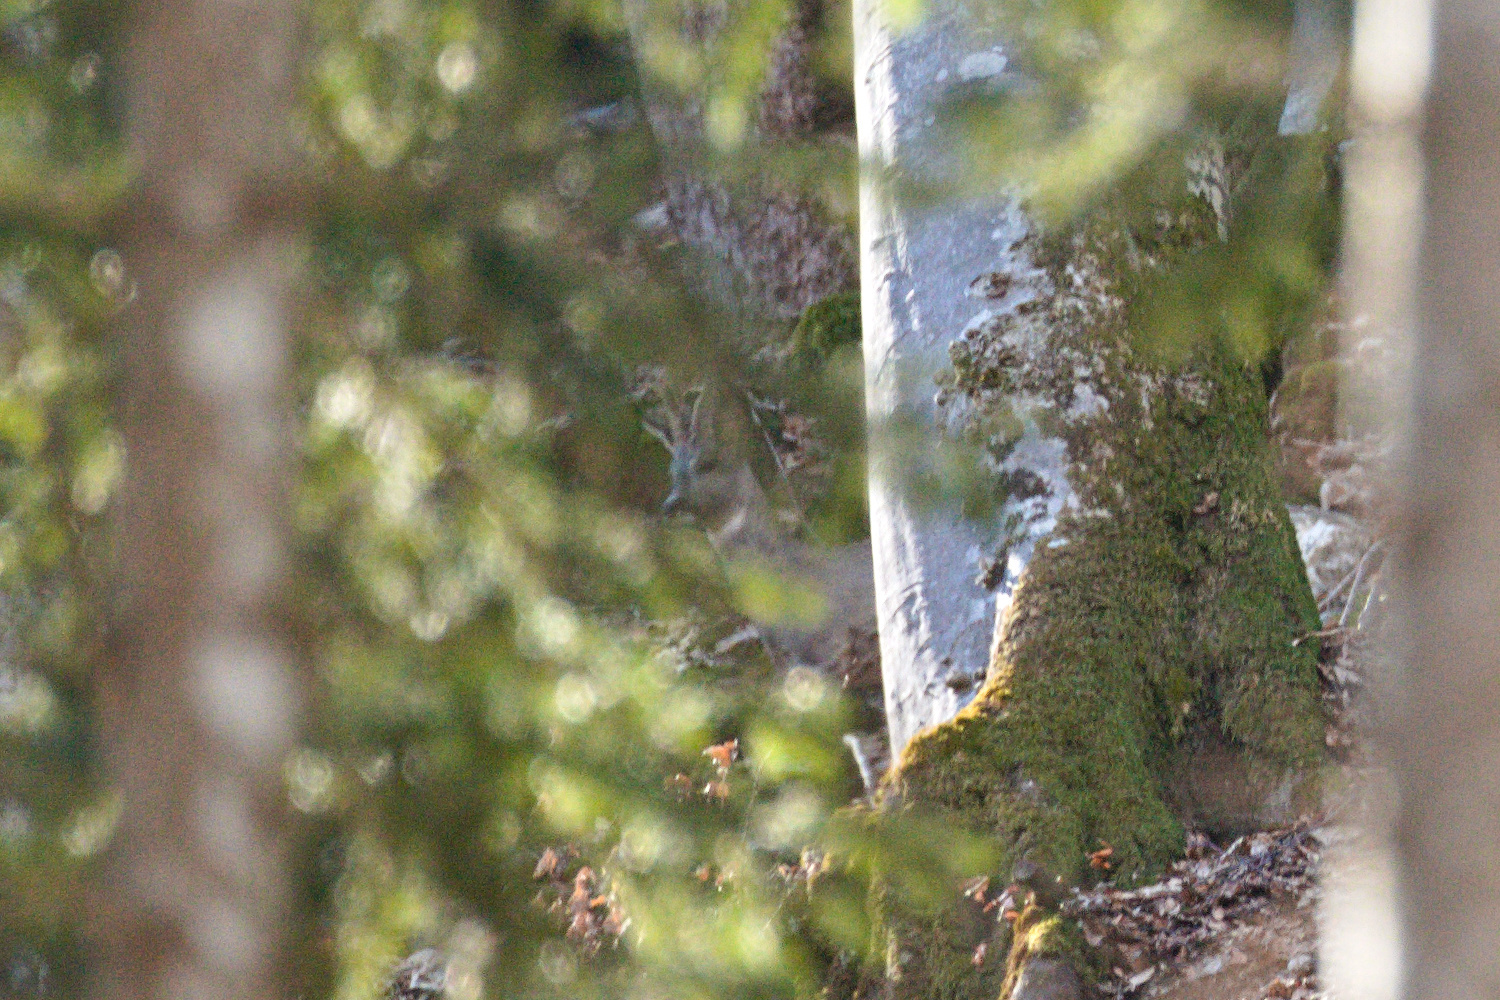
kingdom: Animalia
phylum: Chordata
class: Mammalia
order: Artiodactyla
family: Cervidae
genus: Capreolus
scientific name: Capreolus capreolus
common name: Western roe deer
